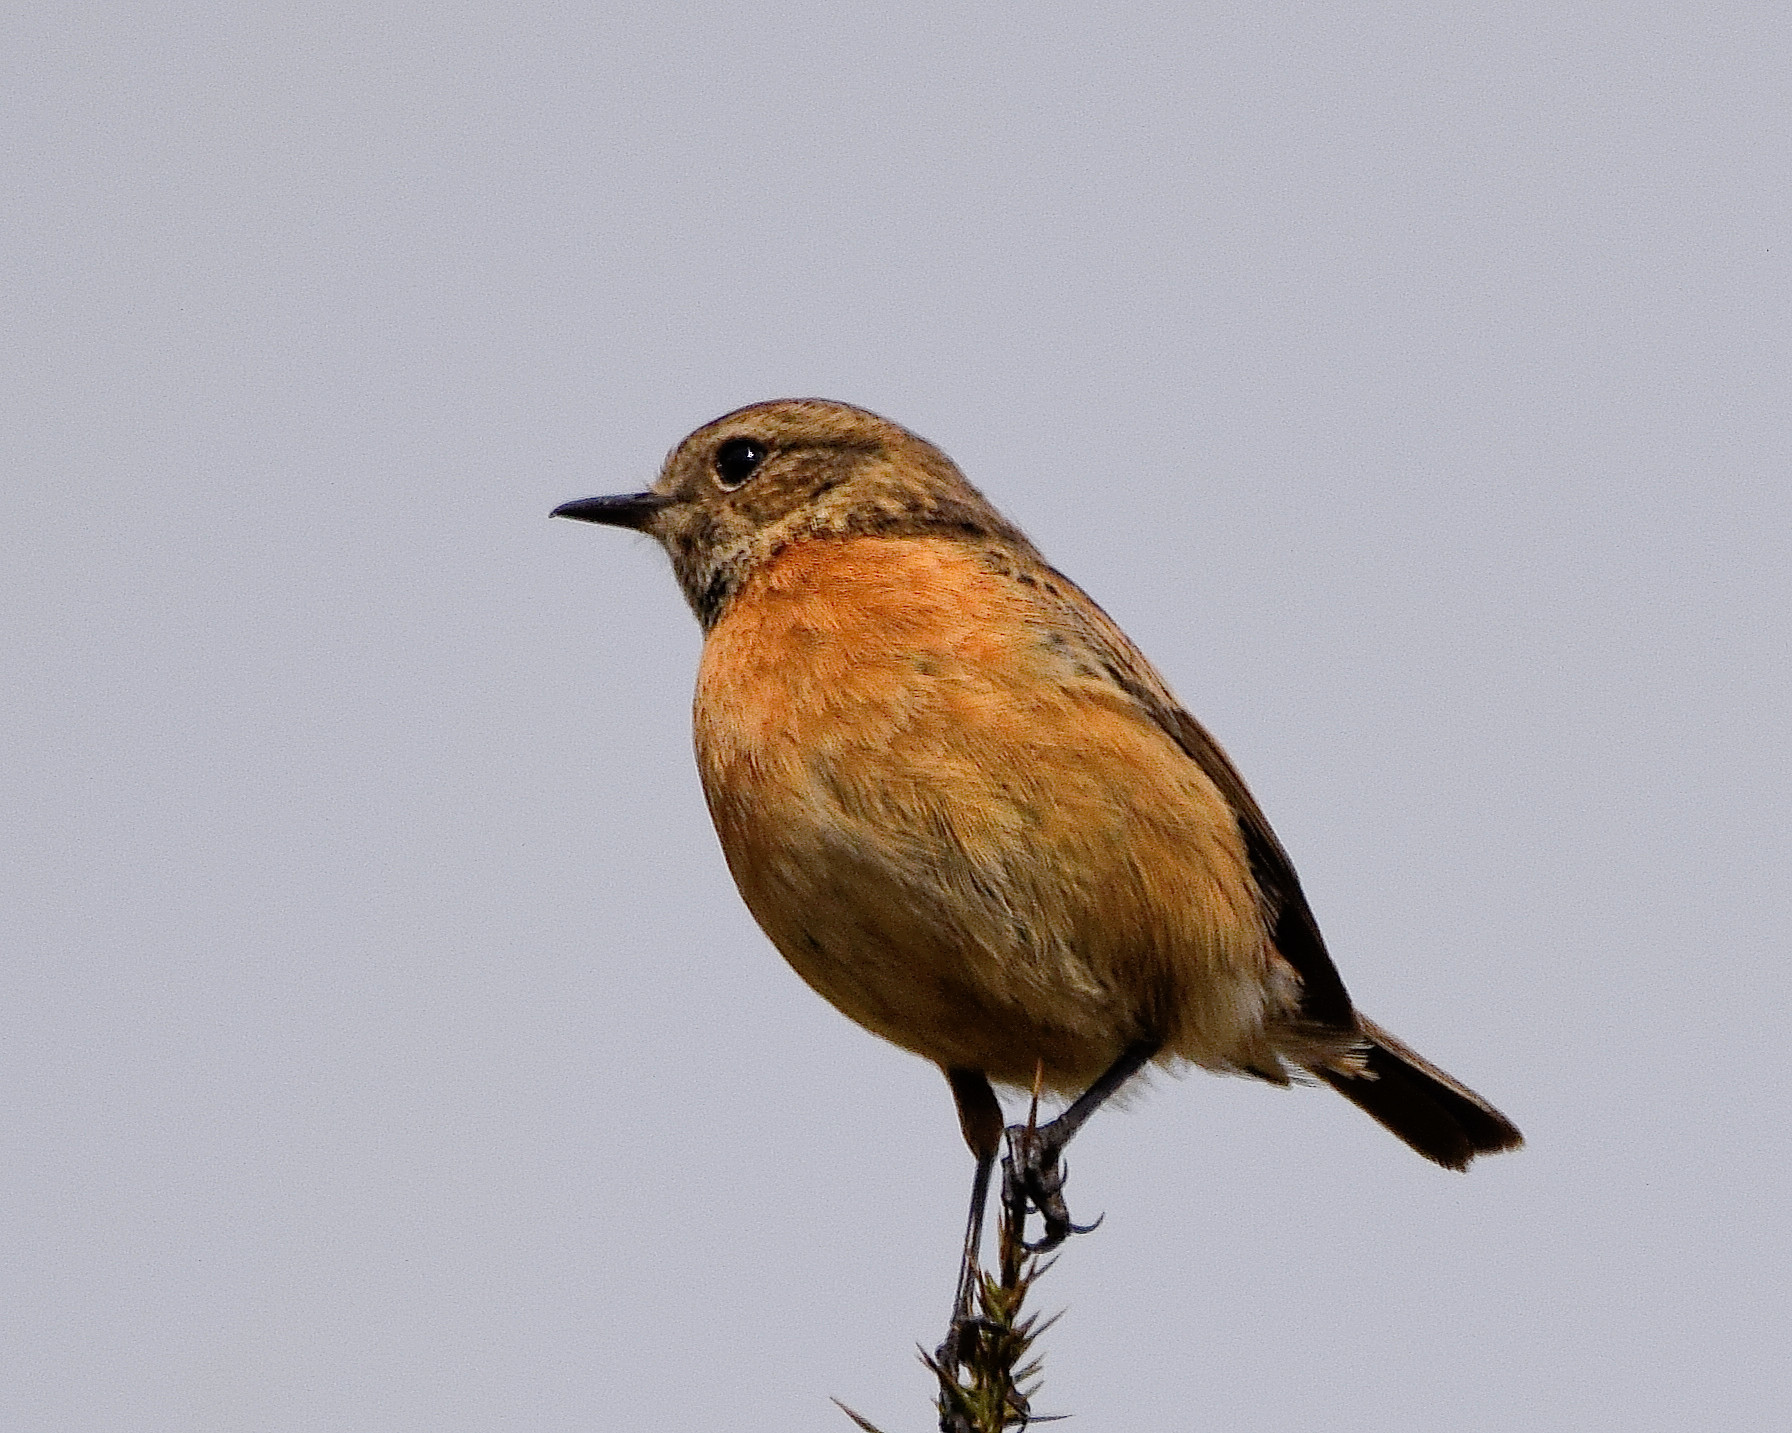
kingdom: Animalia
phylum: Chordata
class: Aves
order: Passeriformes
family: Muscicapidae
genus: Saxicola
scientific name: Saxicola rubicola
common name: European stonechat
